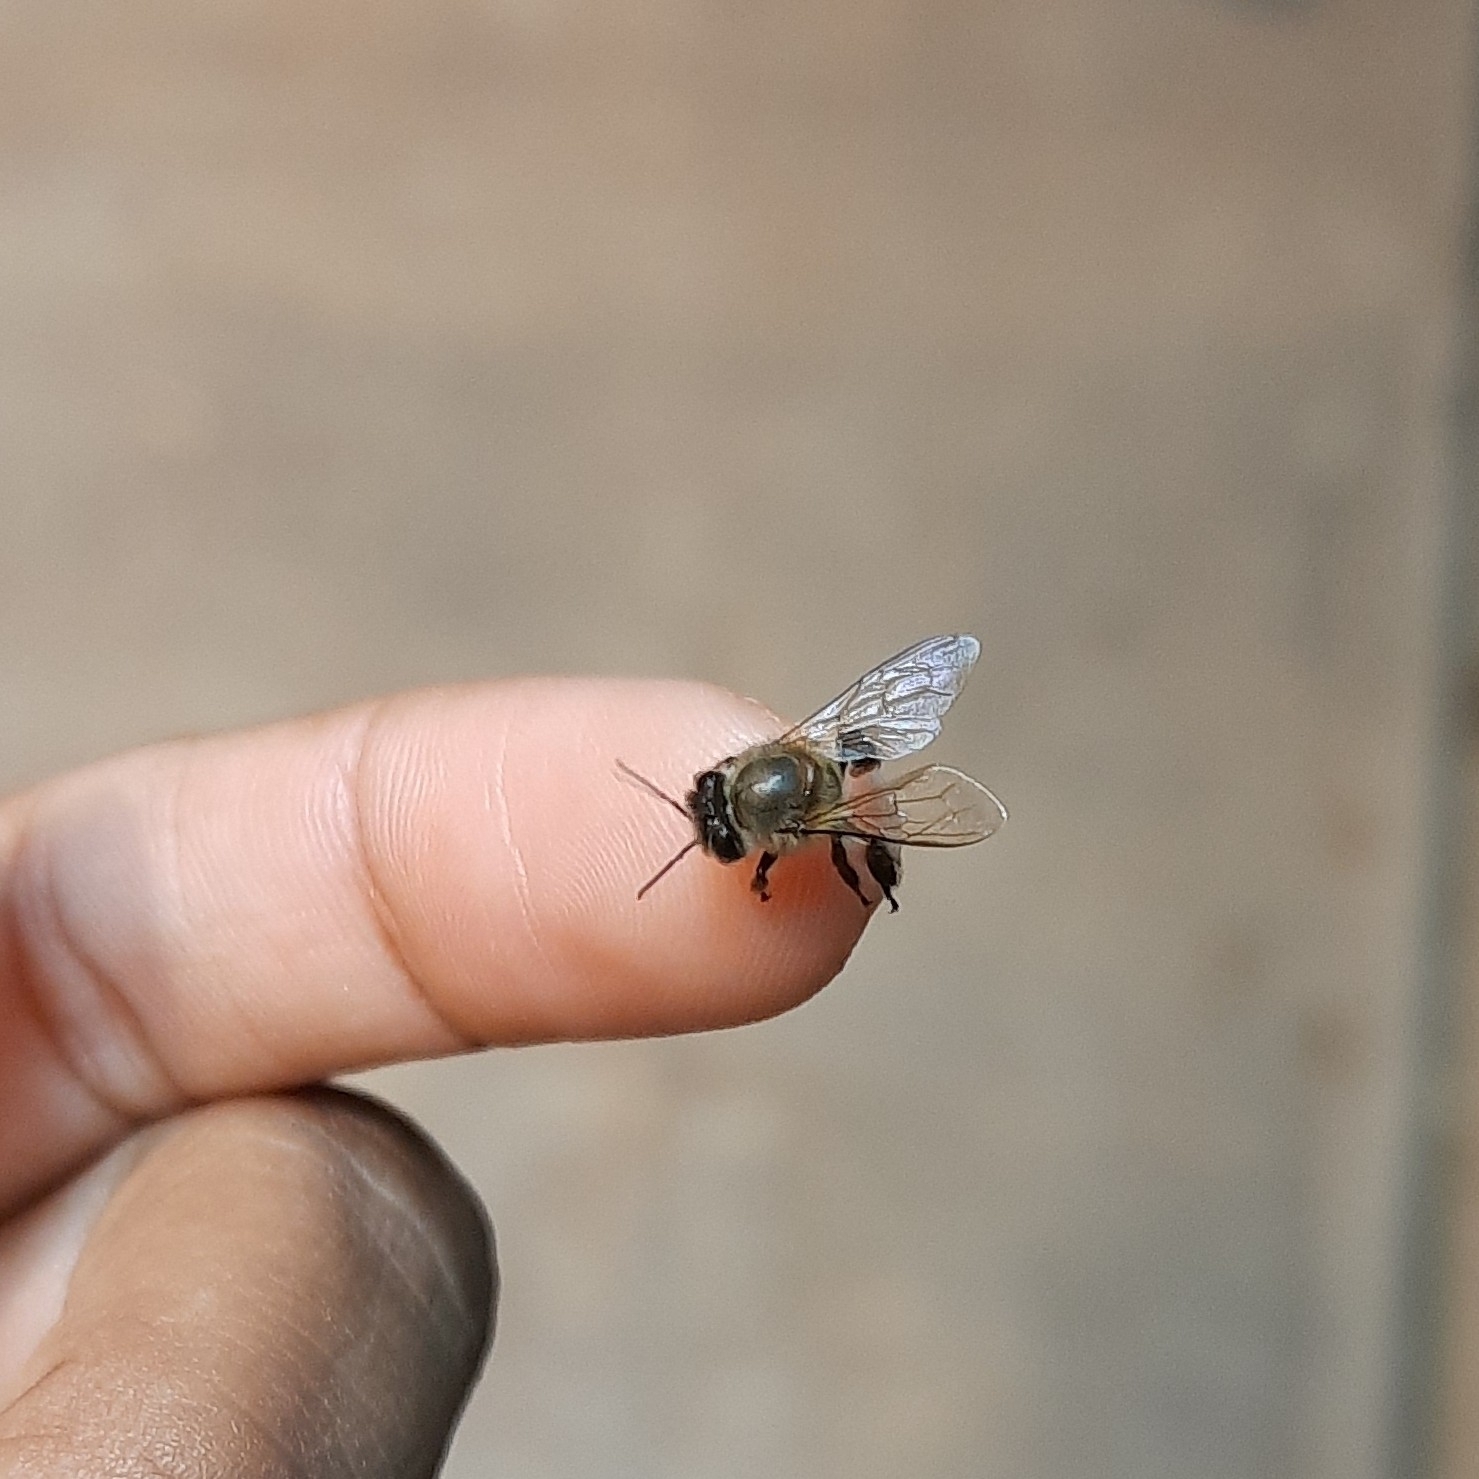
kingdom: Animalia
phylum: Arthropoda
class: Insecta
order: Hymenoptera
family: Apidae
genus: Apis
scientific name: Apis cerana
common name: Honey bee
